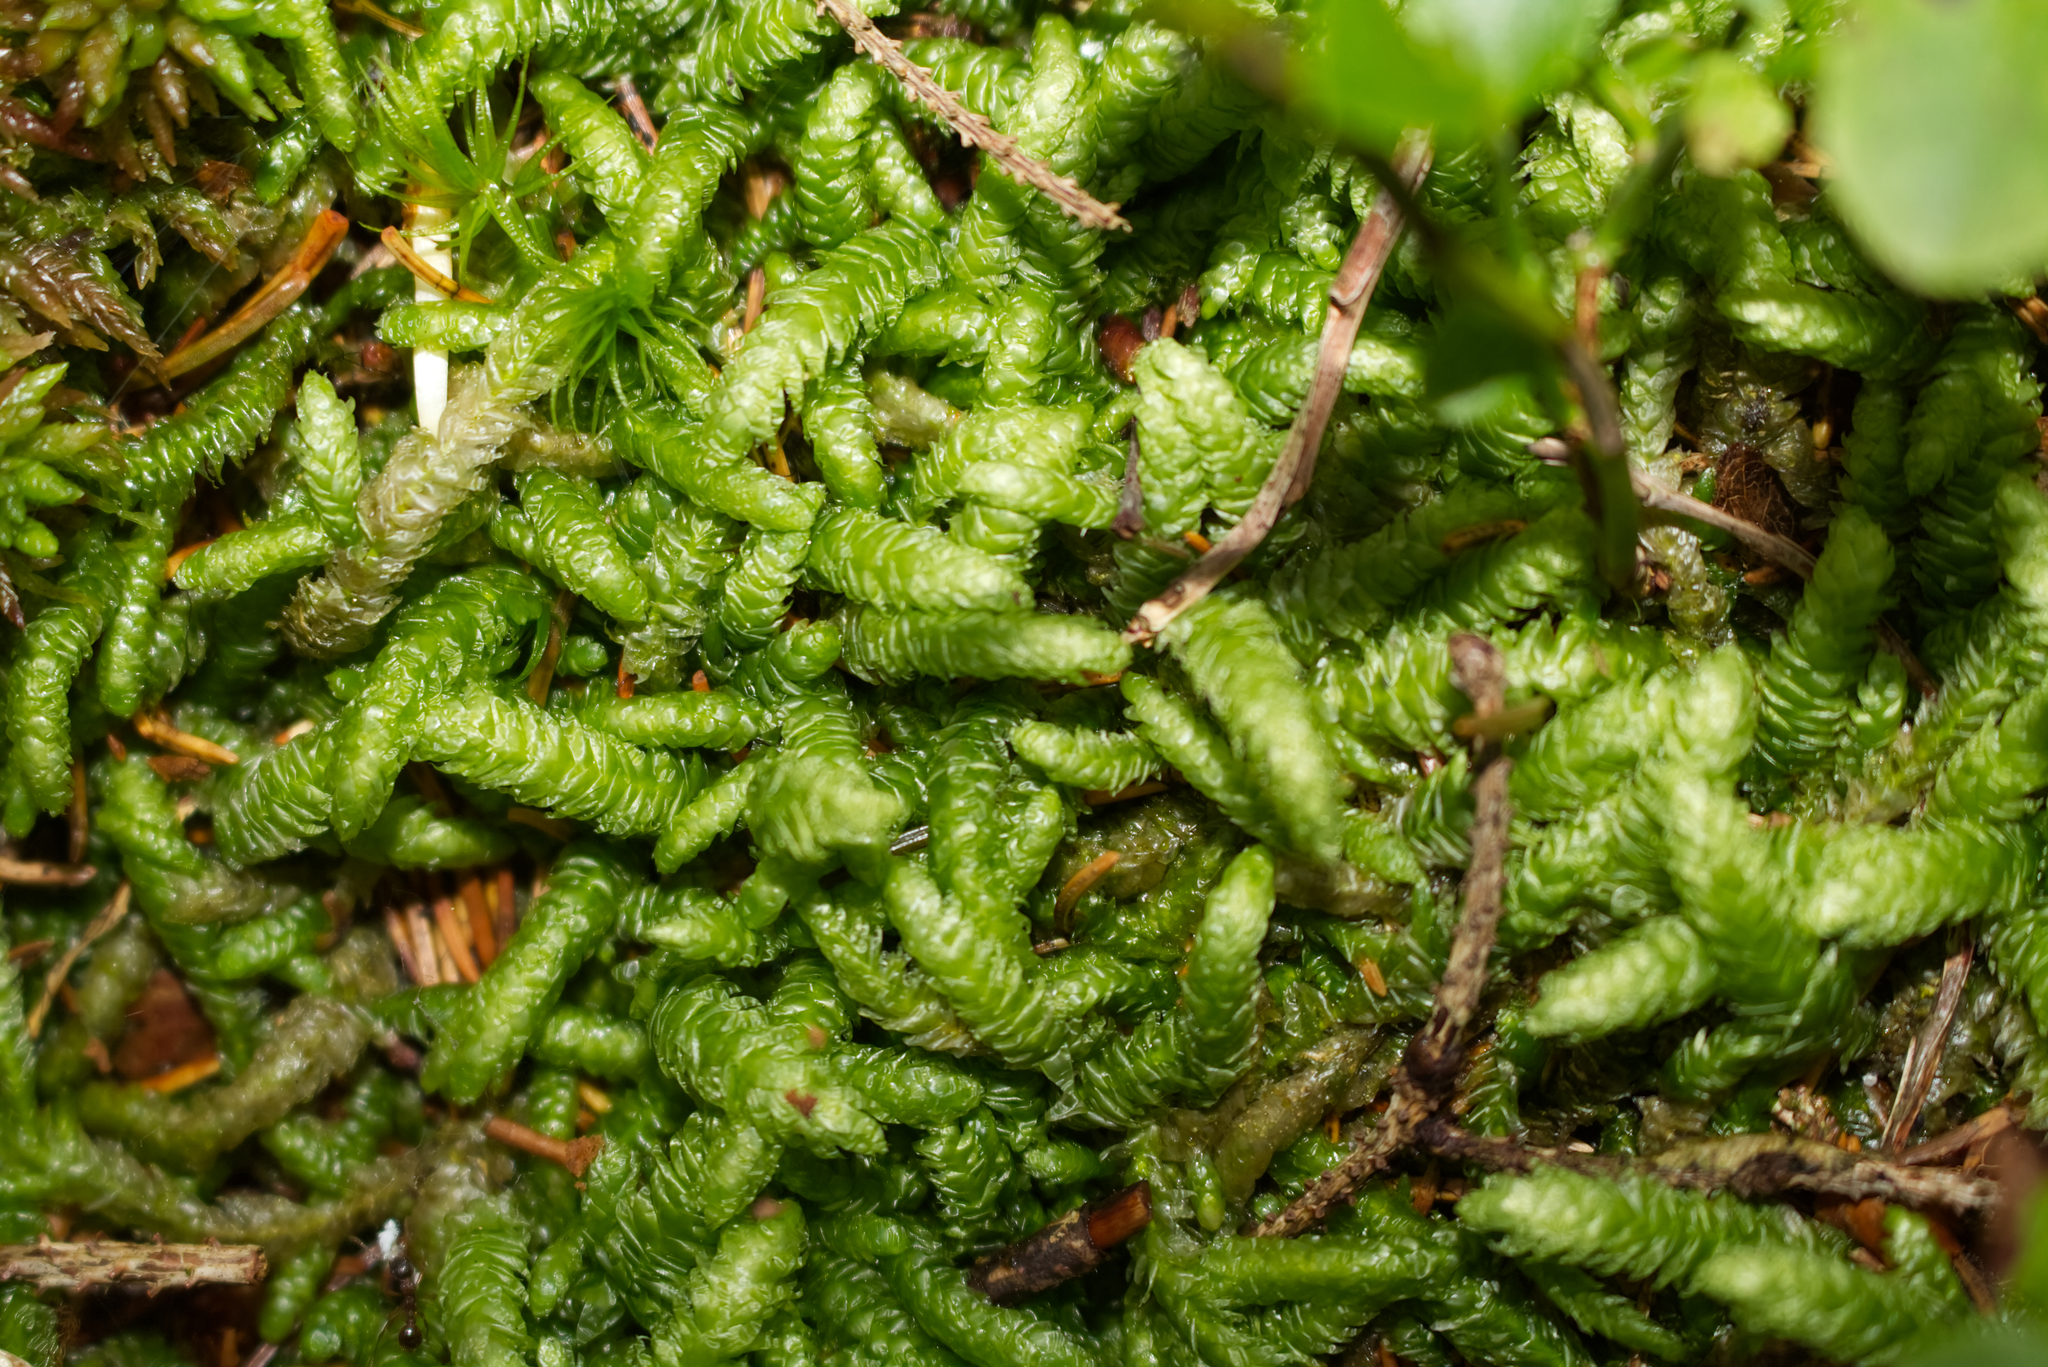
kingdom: Plantae
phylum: Bryophyta
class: Bryopsida
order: Hypnales
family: Plagiotheciaceae
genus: Plagiothecium
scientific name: Plagiothecium undulatum
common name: Waved silk-moss
